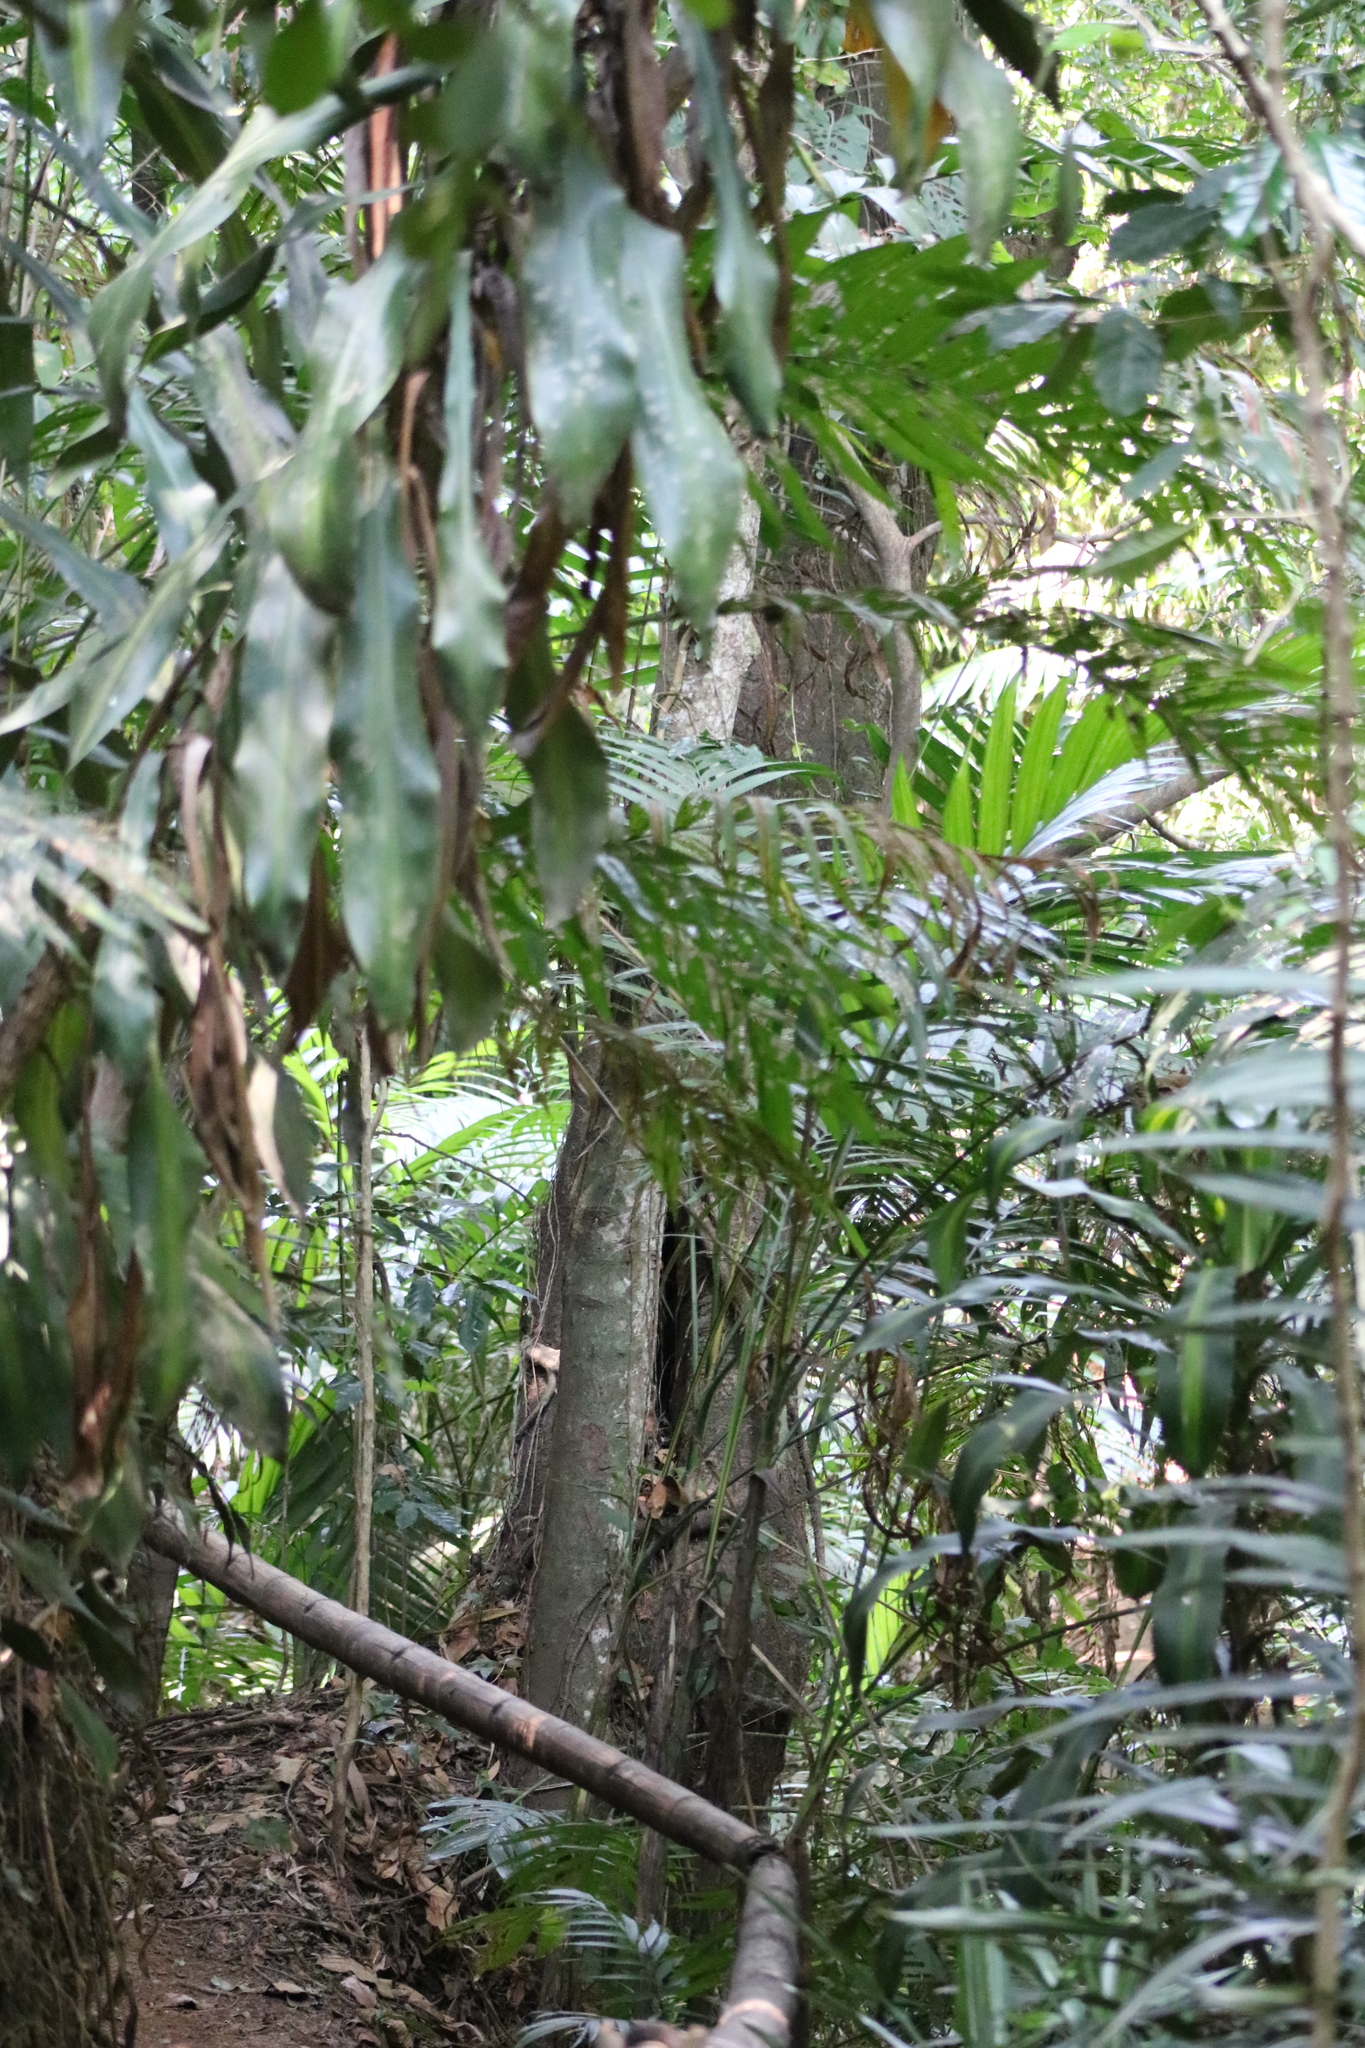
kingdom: Plantae
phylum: Tracheophyta
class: Liliopsida
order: Arecales
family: Arecaceae
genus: Chamaedorea
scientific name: Chamaedorea tepejilote
